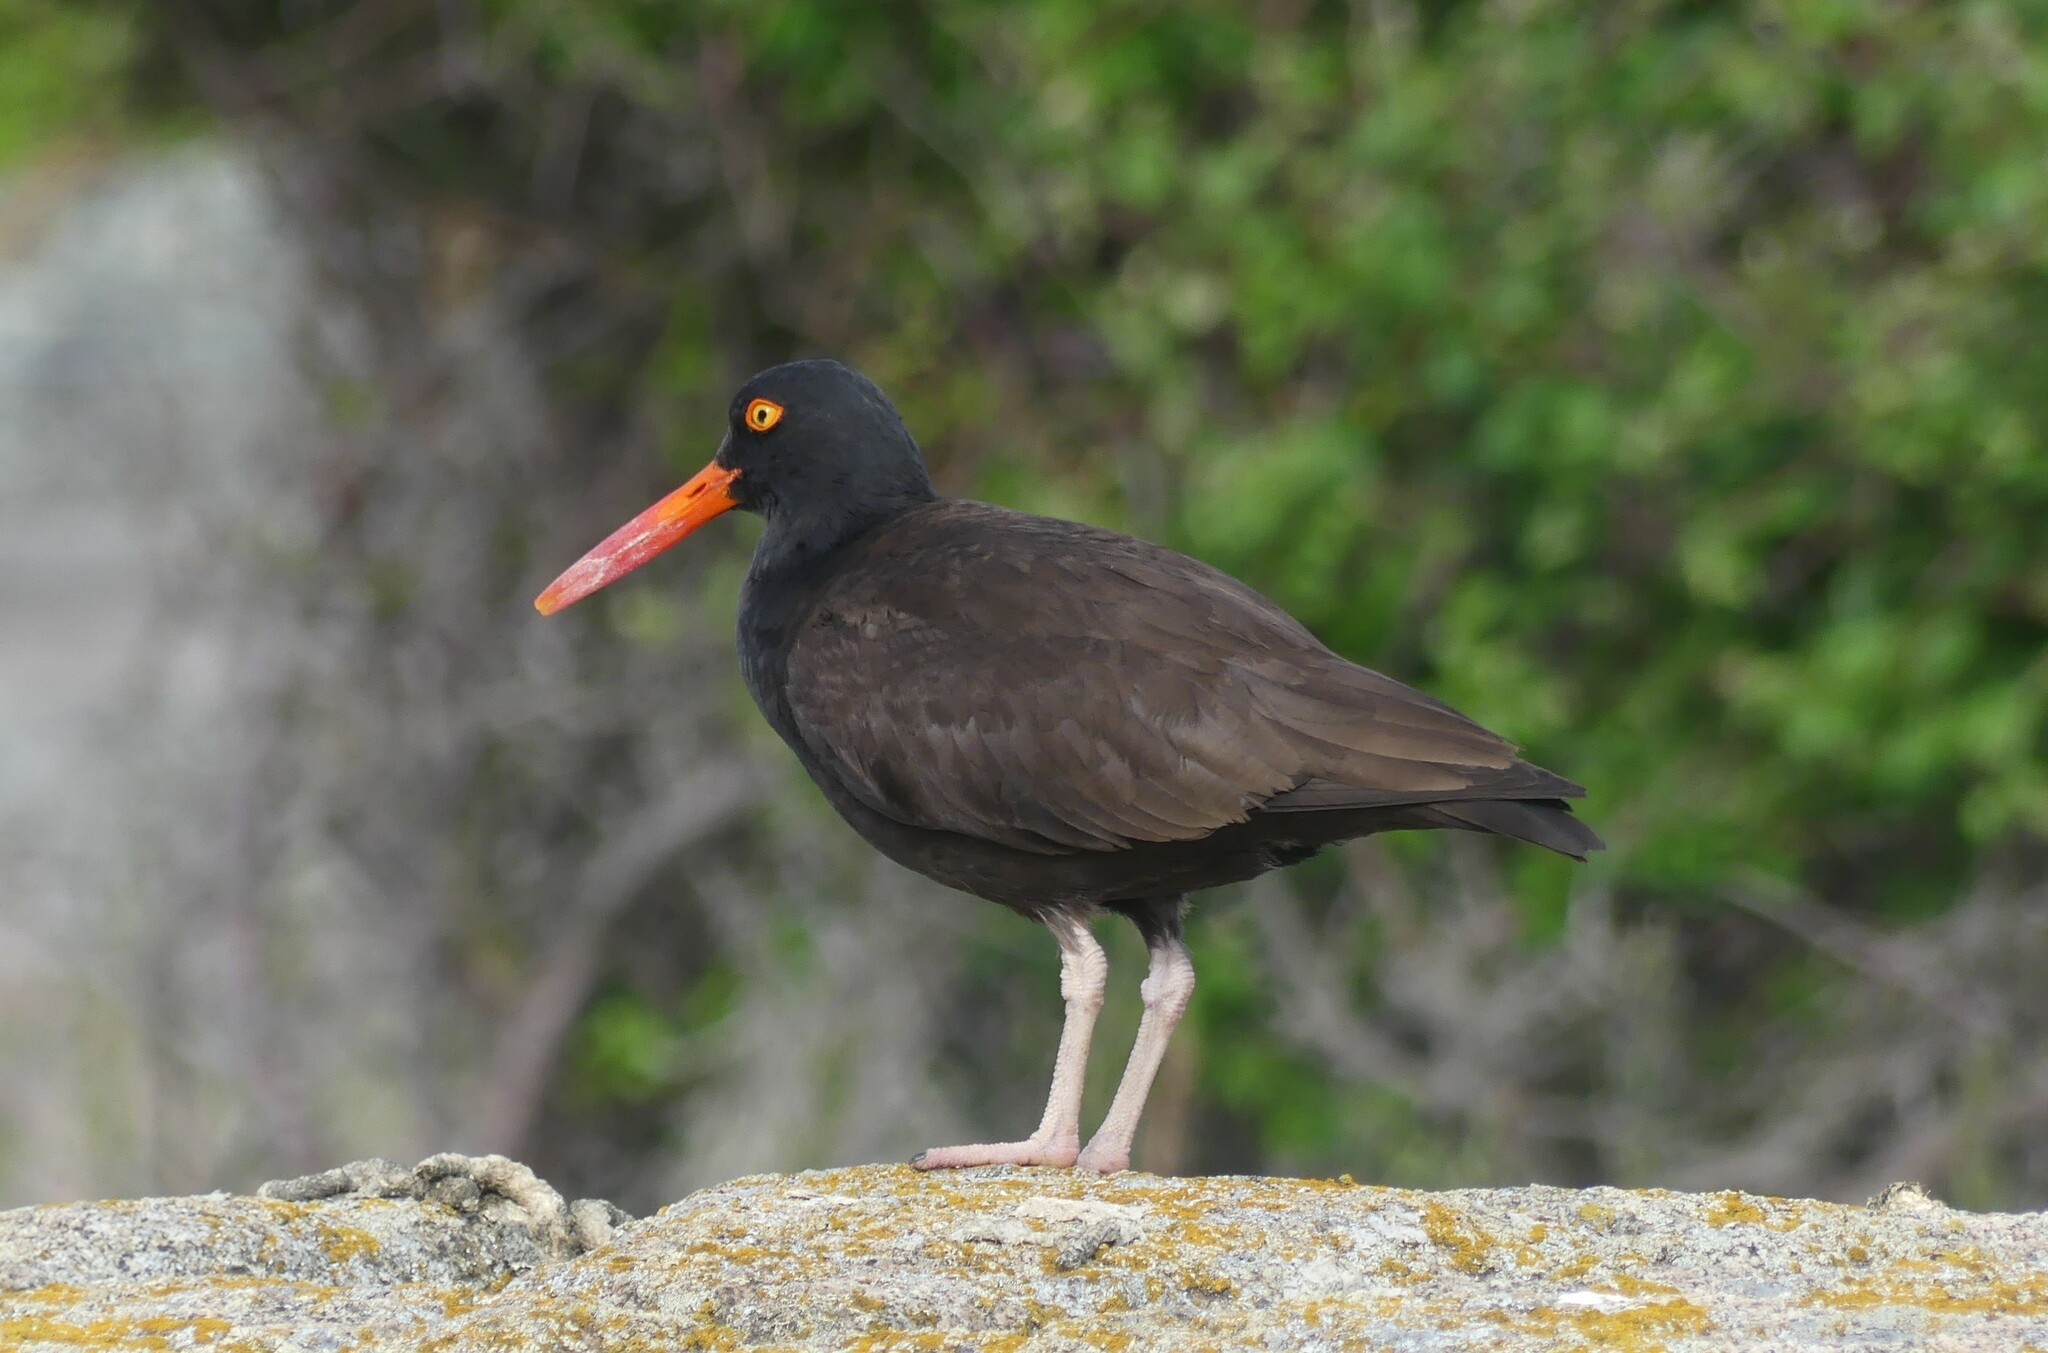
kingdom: Animalia
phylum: Chordata
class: Aves
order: Charadriiformes
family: Haematopodidae
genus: Haematopus
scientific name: Haematopus bachmani
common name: Black oystercatcher
